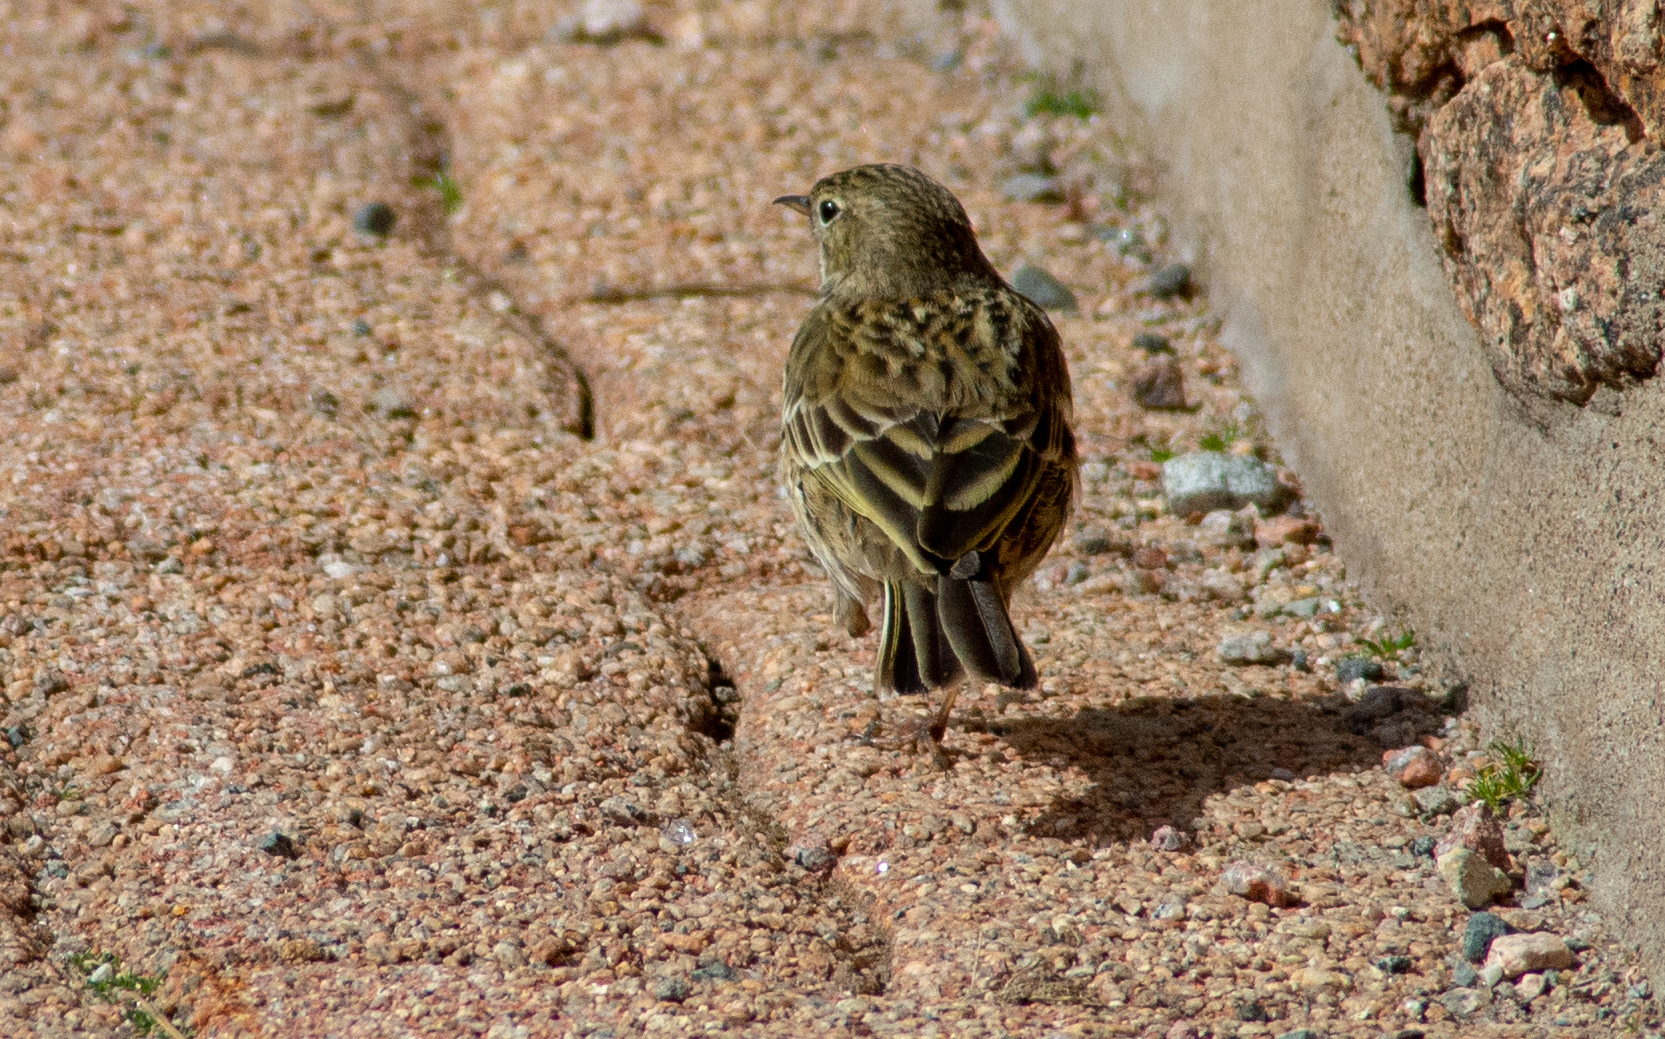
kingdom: Animalia
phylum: Chordata
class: Aves
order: Passeriformes
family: Motacillidae
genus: Anthus
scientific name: Anthus pratensis
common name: Meadow pipit
